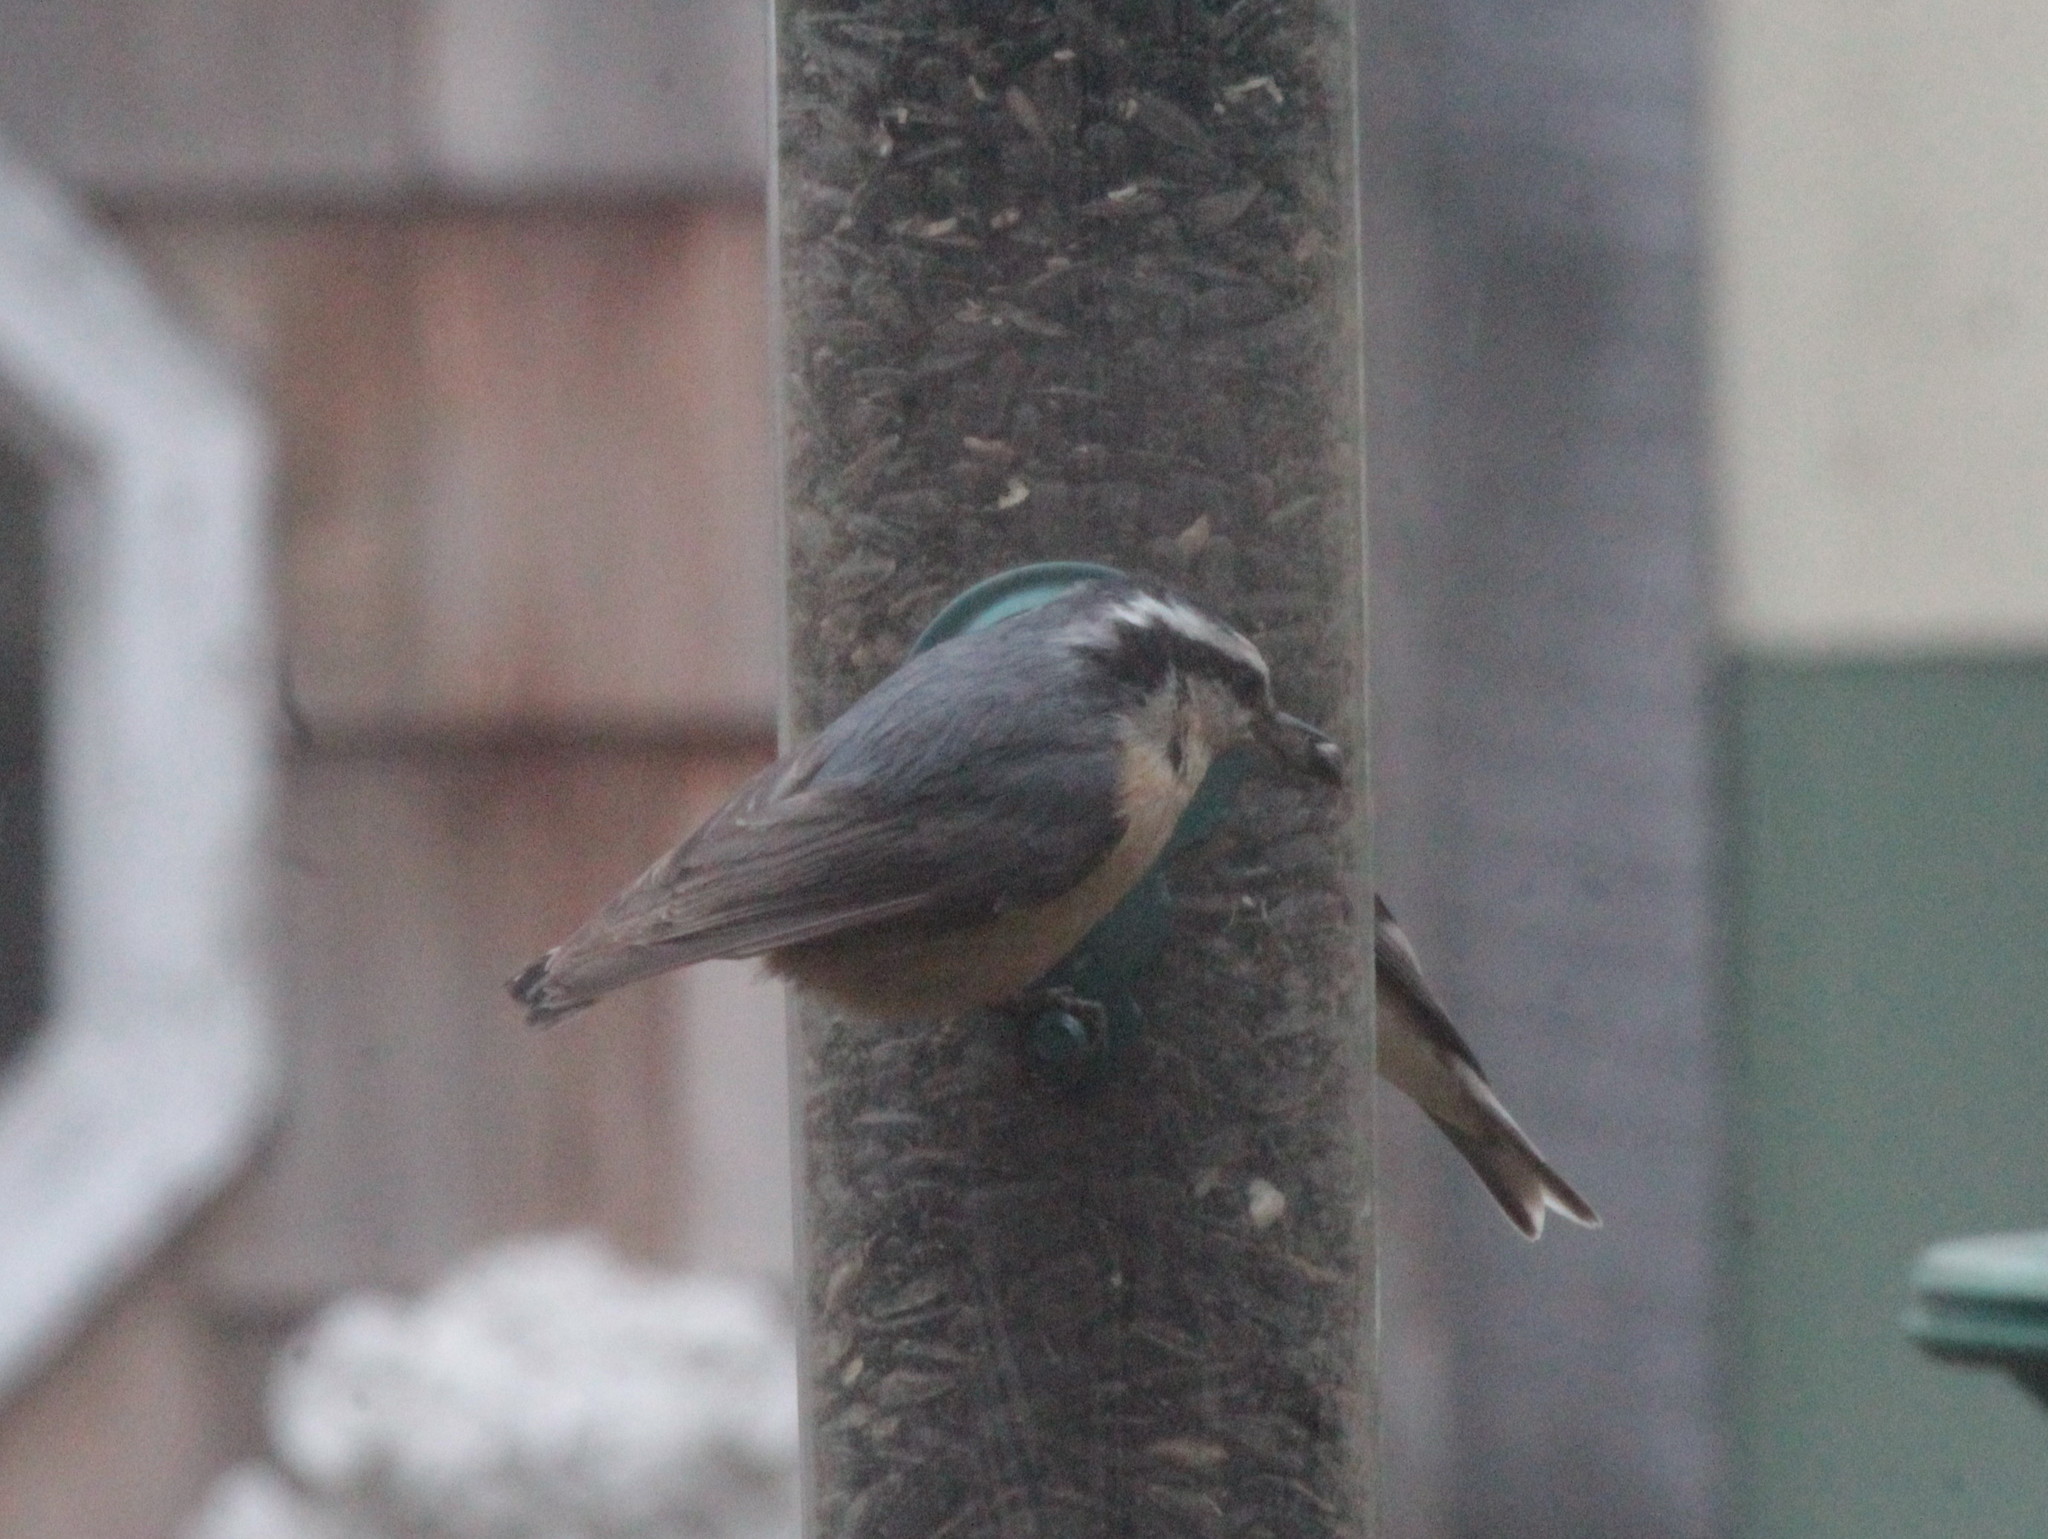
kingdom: Animalia
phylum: Chordata
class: Aves
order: Passeriformes
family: Sittidae
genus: Sitta
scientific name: Sitta canadensis
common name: Red-breasted nuthatch
